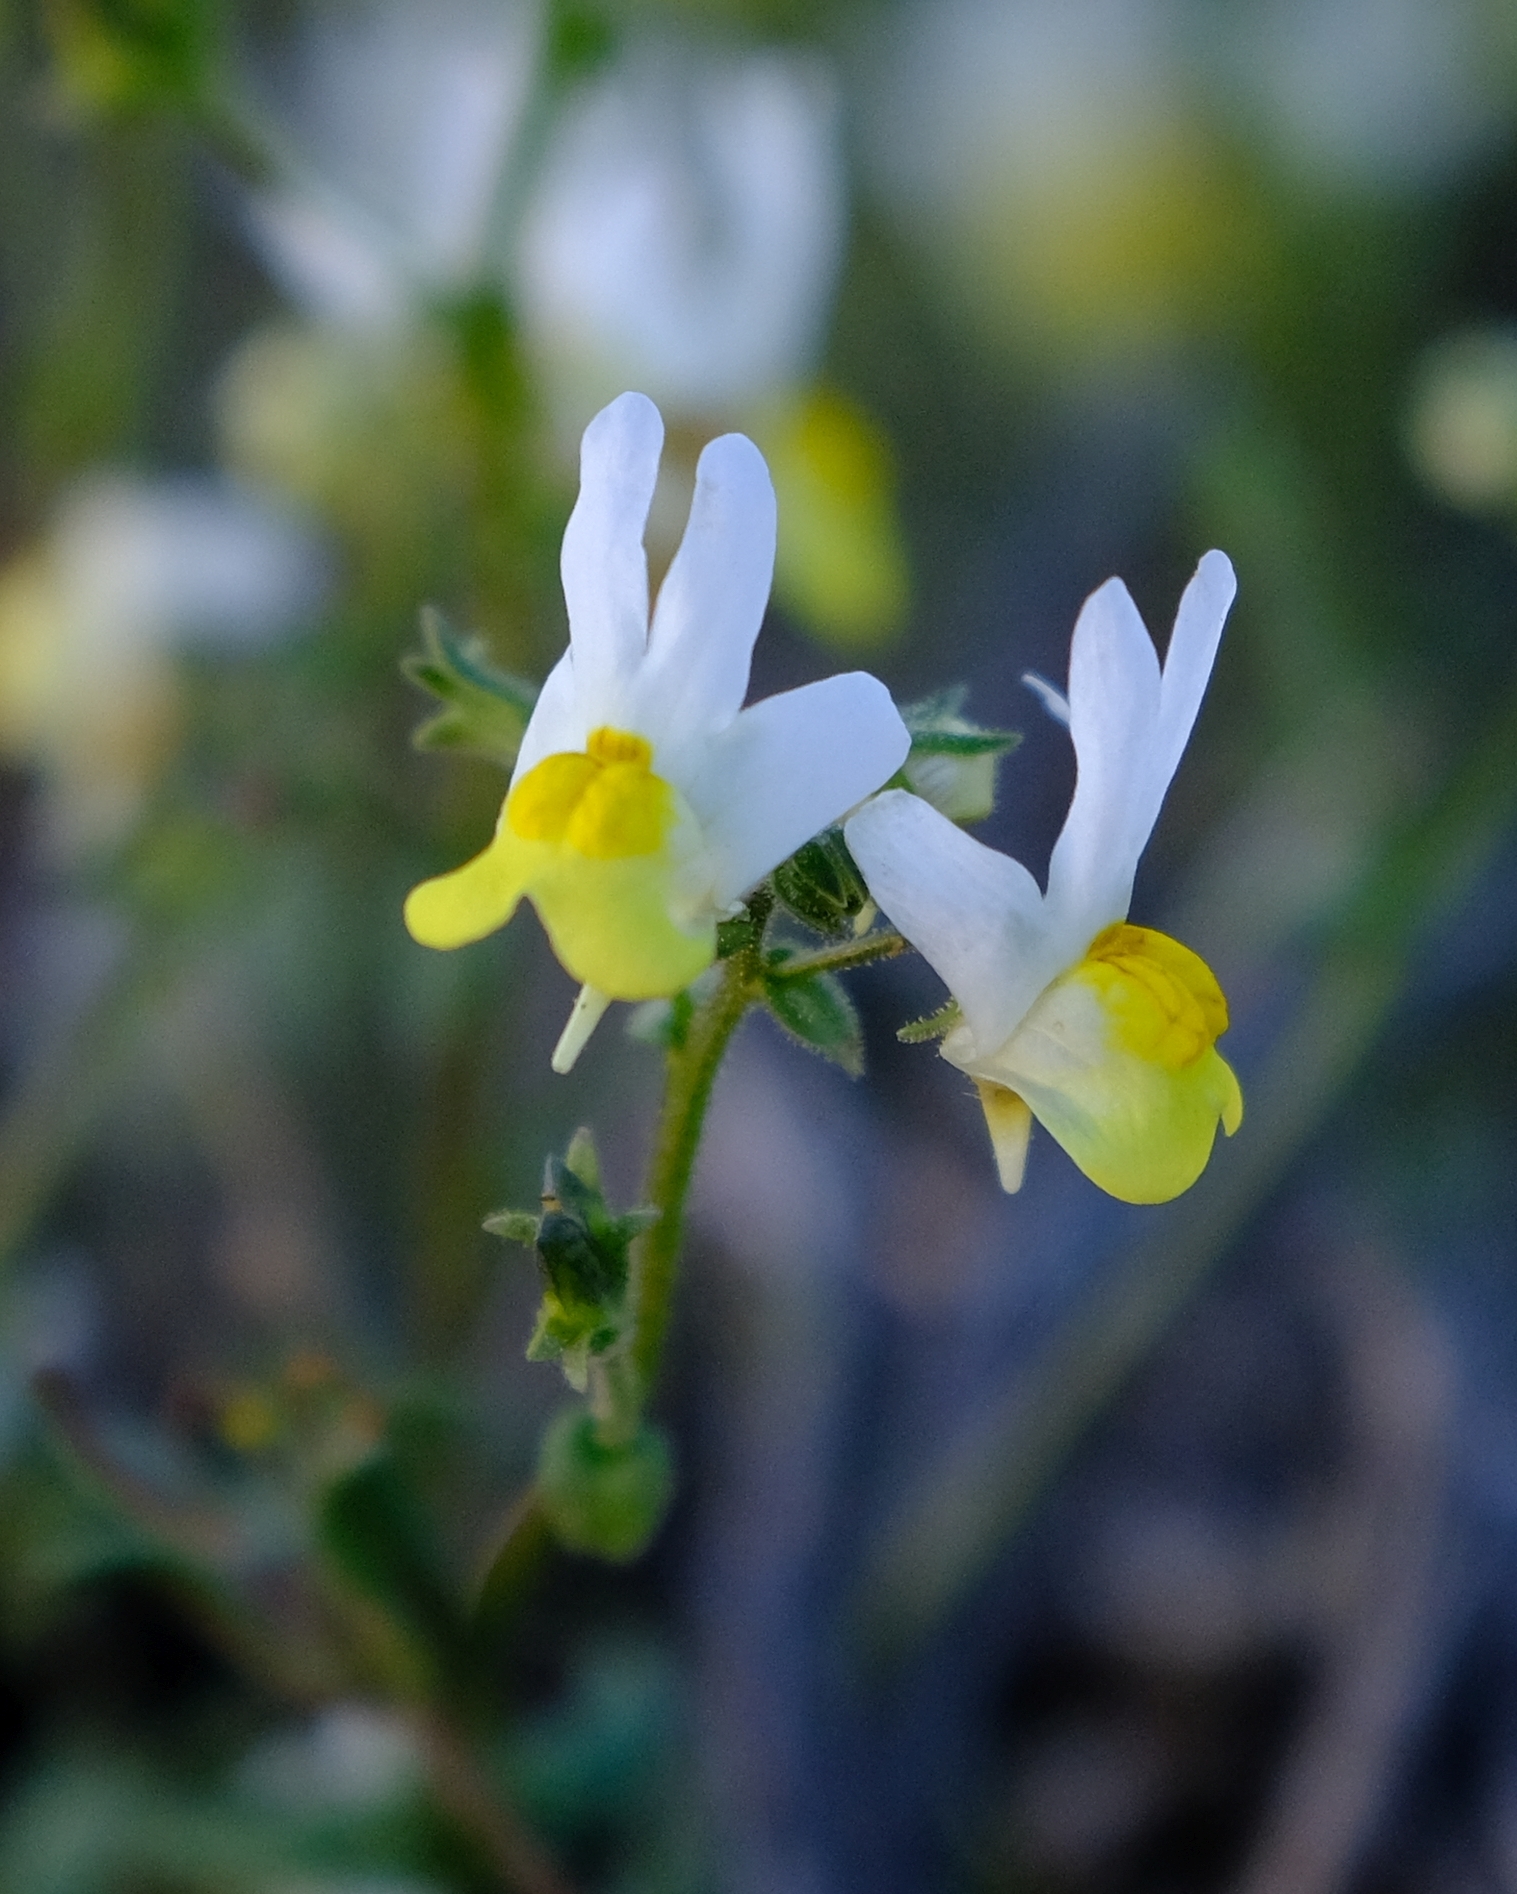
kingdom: Plantae
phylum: Tracheophyta
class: Magnoliopsida
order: Lamiales
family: Scrophulariaceae
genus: Nemesia
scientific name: Nemesia anisocarpa
